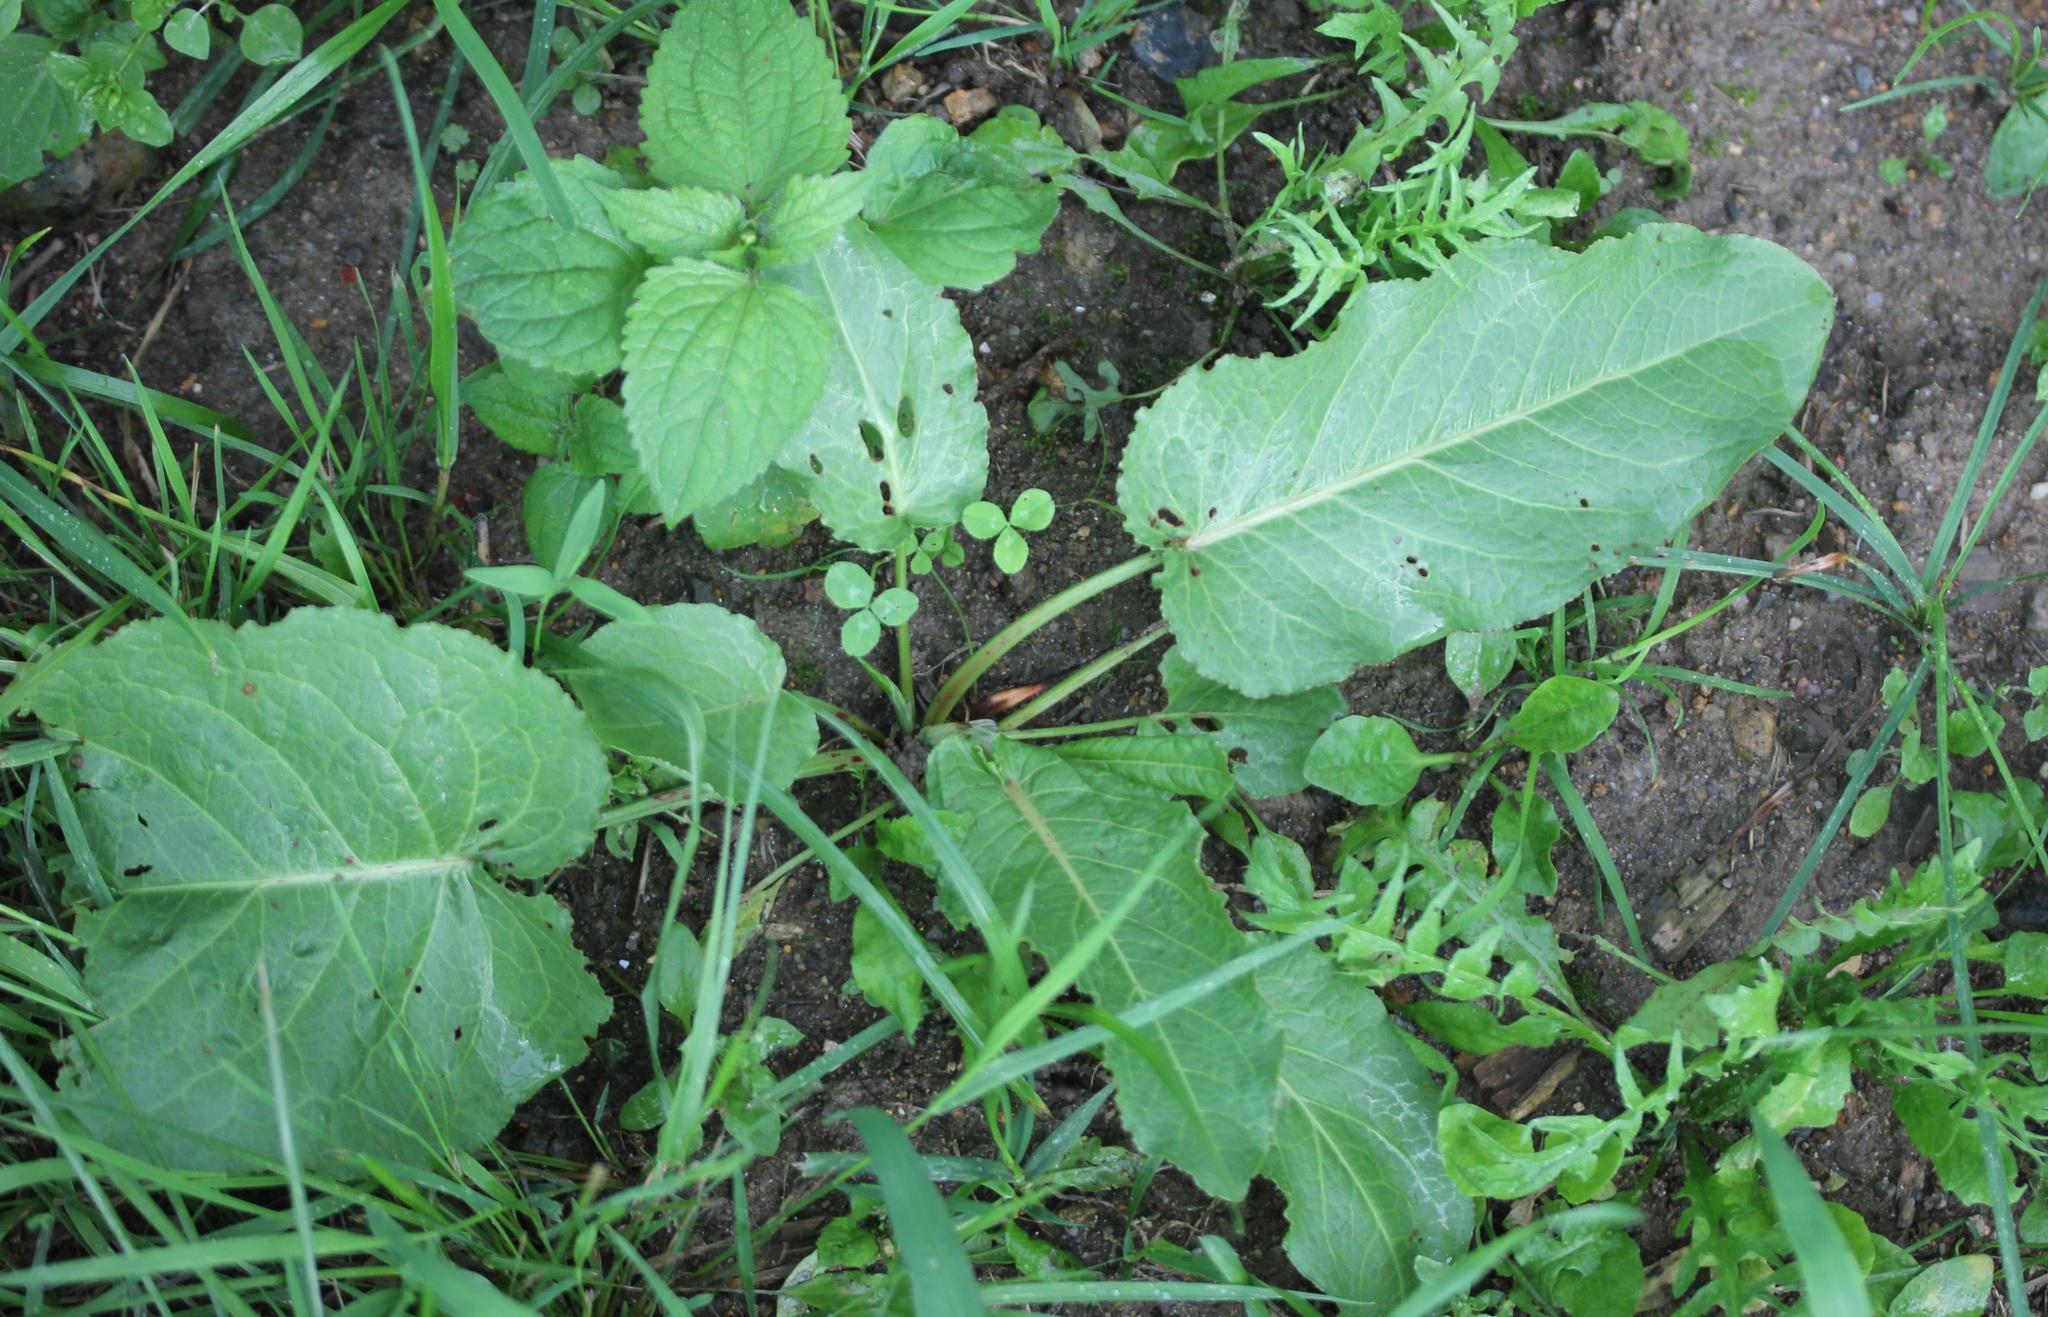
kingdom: Plantae
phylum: Tracheophyta
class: Magnoliopsida
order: Caryophyllales
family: Polygonaceae
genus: Rumex
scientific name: Rumex obtusifolius
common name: Bitter dock
